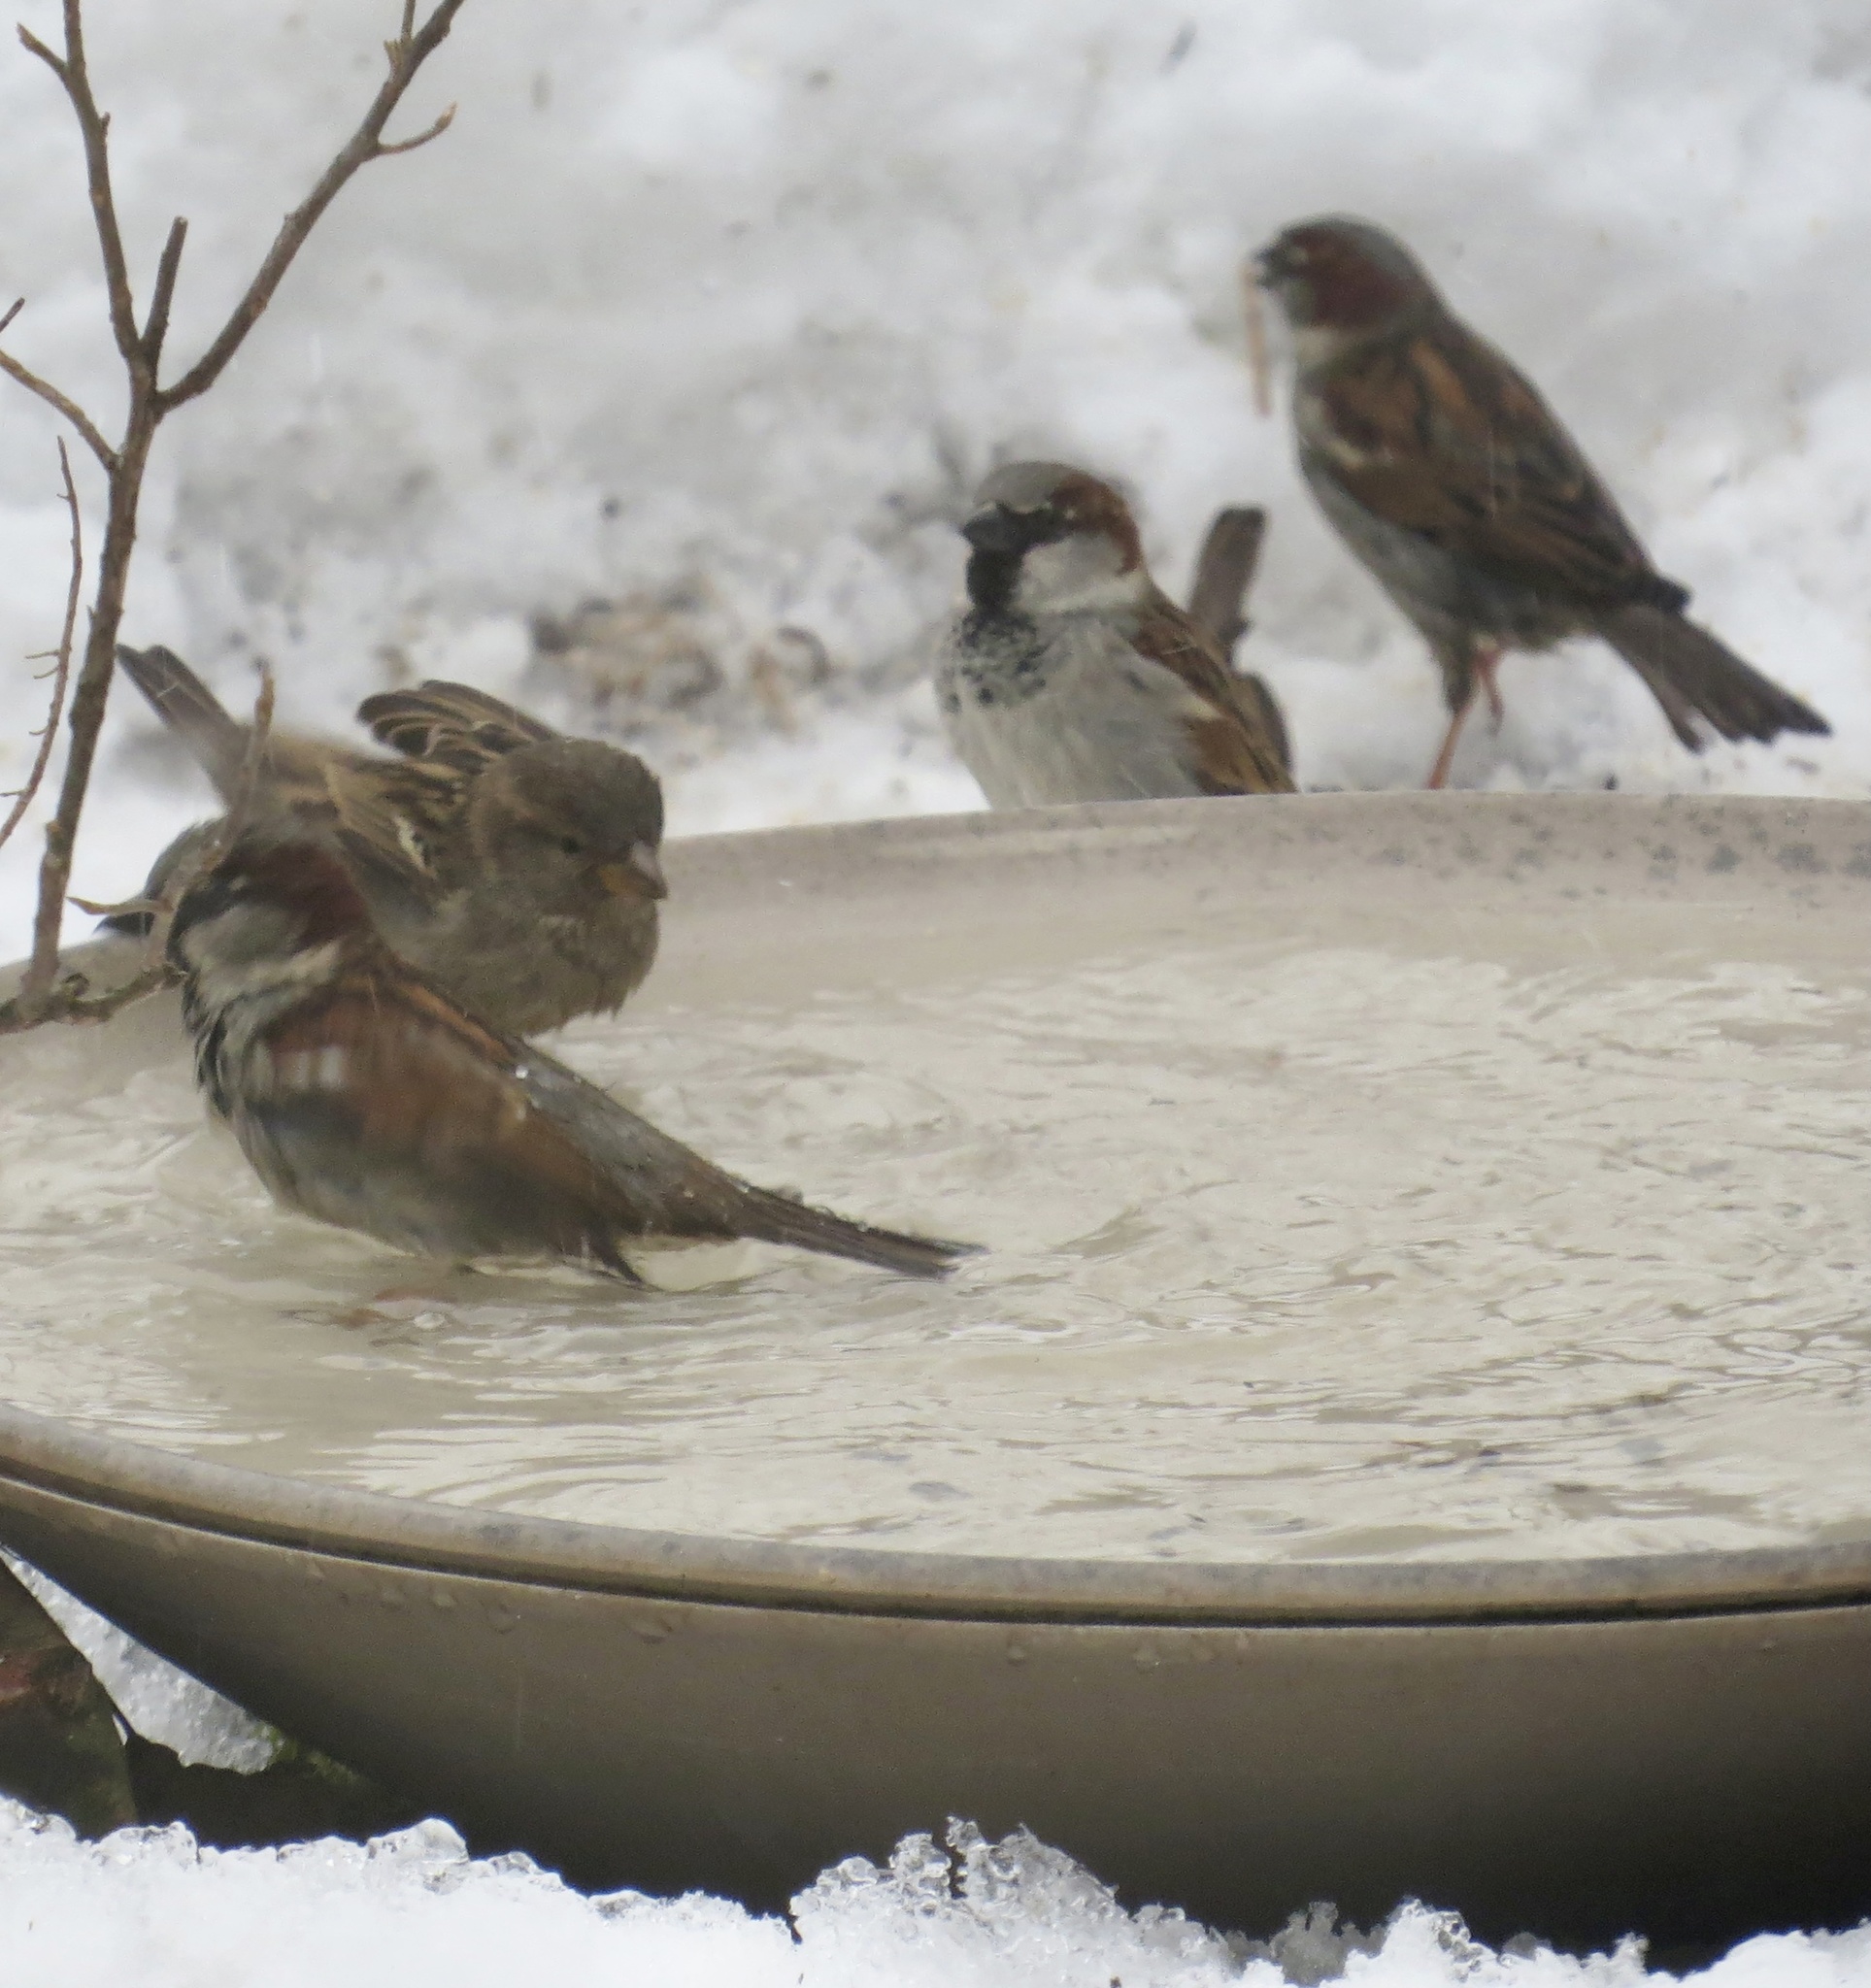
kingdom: Animalia
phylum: Chordata
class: Aves
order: Passeriformes
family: Passeridae
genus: Passer
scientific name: Passer domesticus
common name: House sparrow
